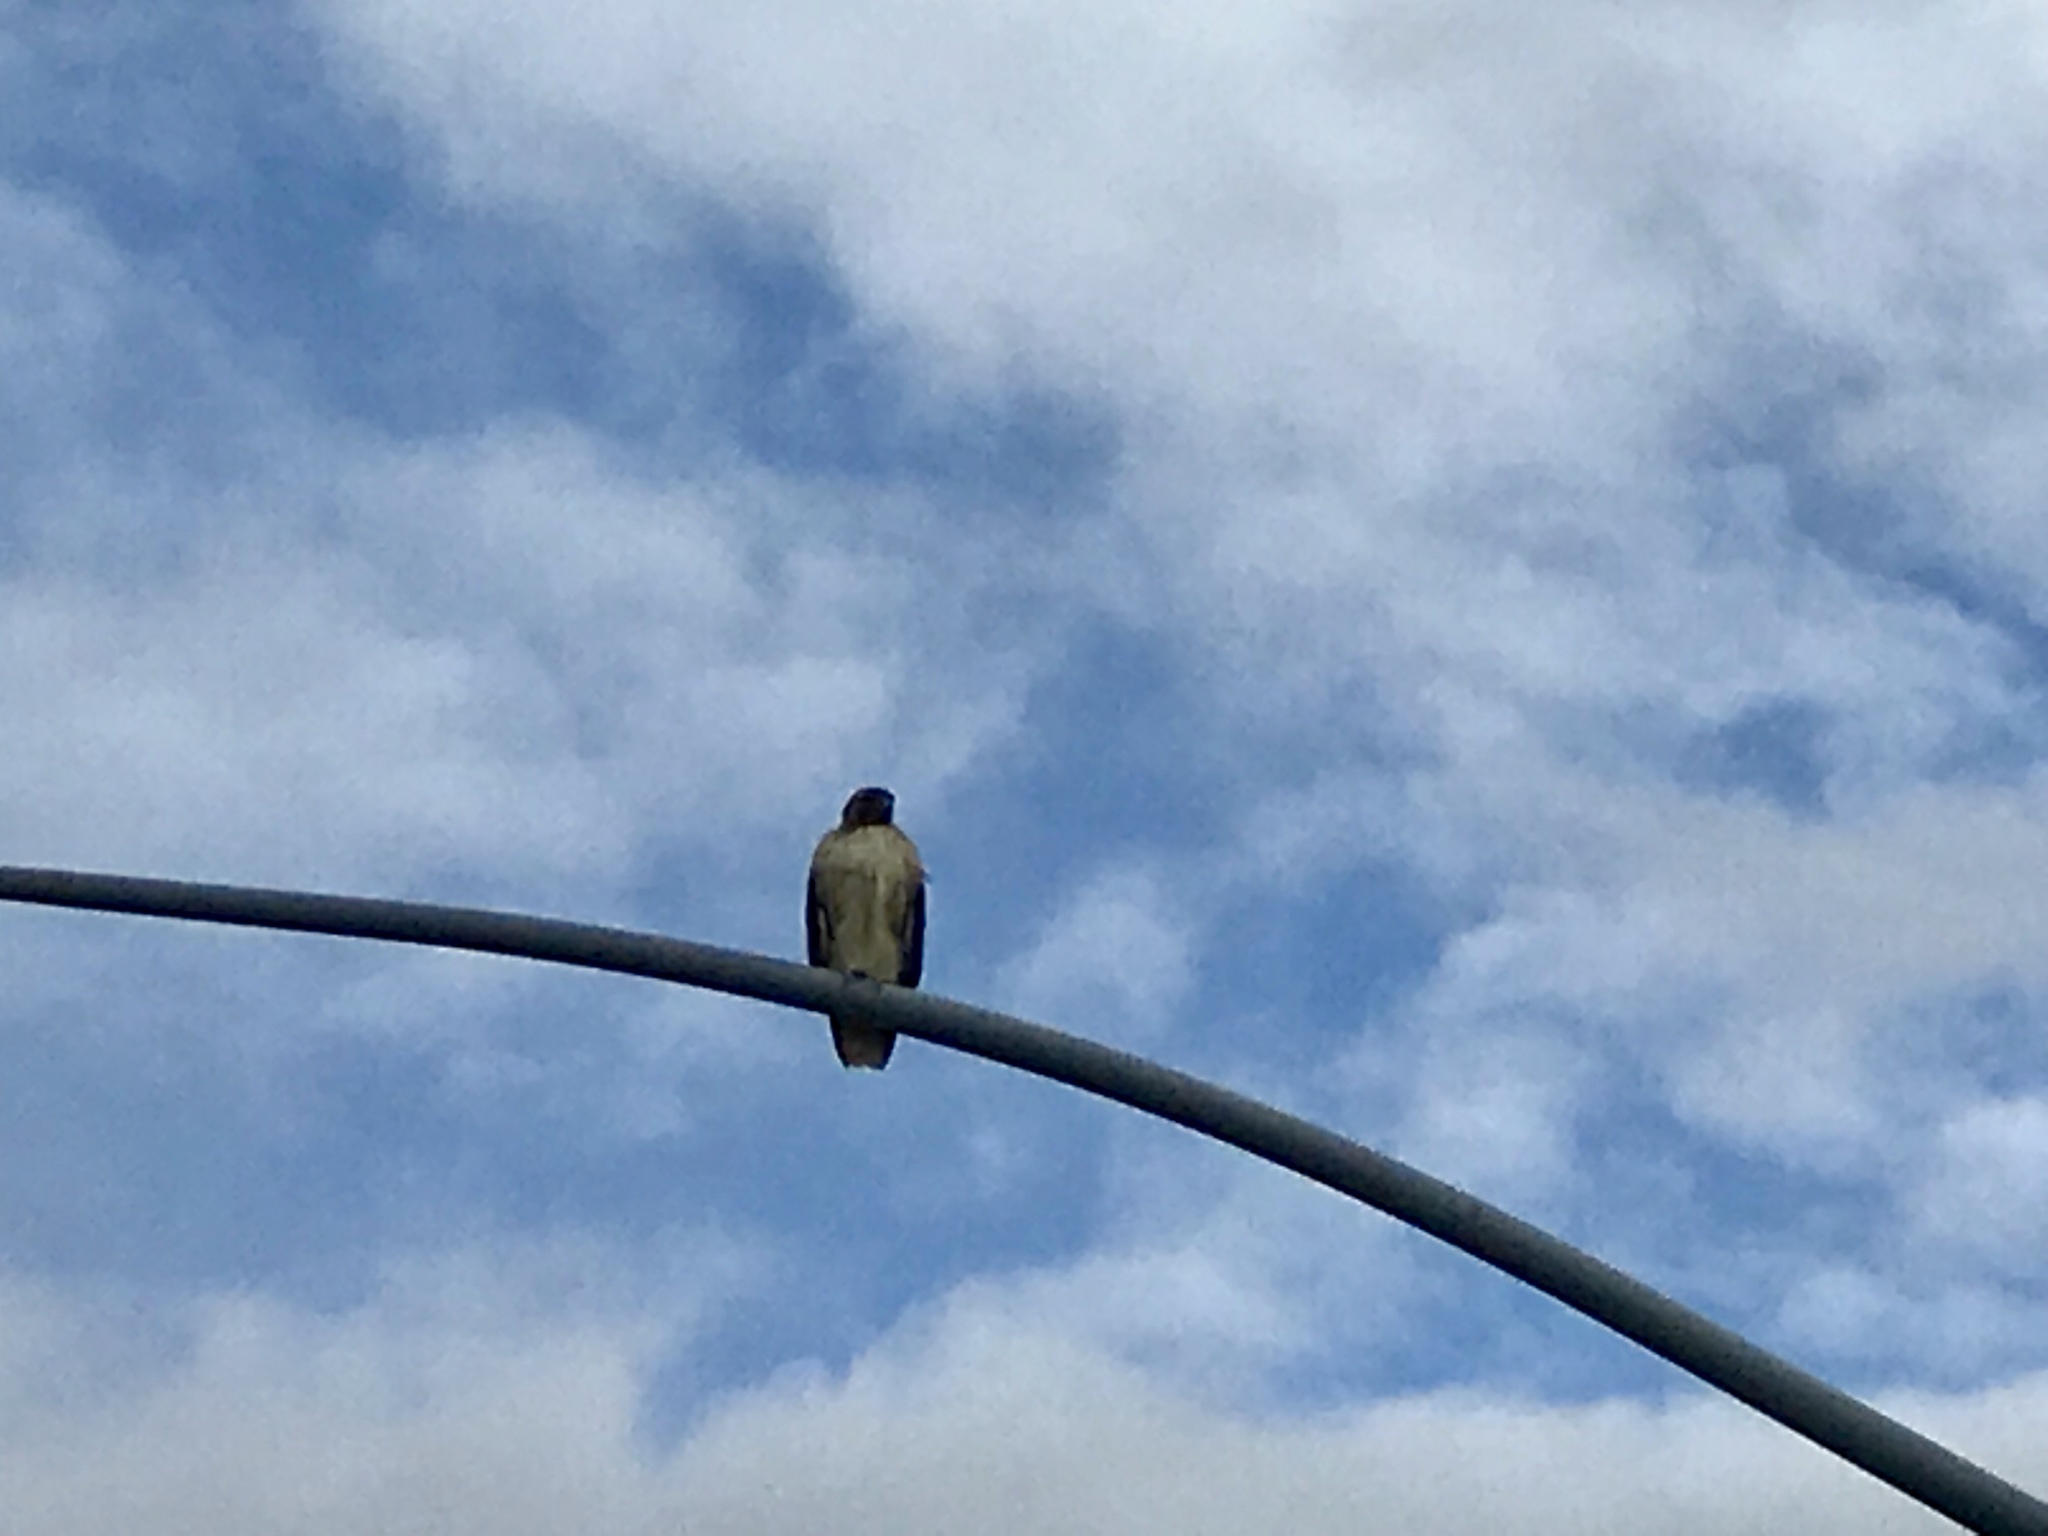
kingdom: Animalia
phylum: Chordata
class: Aves
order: Accipitriformes
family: Accipitridae
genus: Buteo
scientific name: Buteo jamaicensis
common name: Red-tailed hawk
